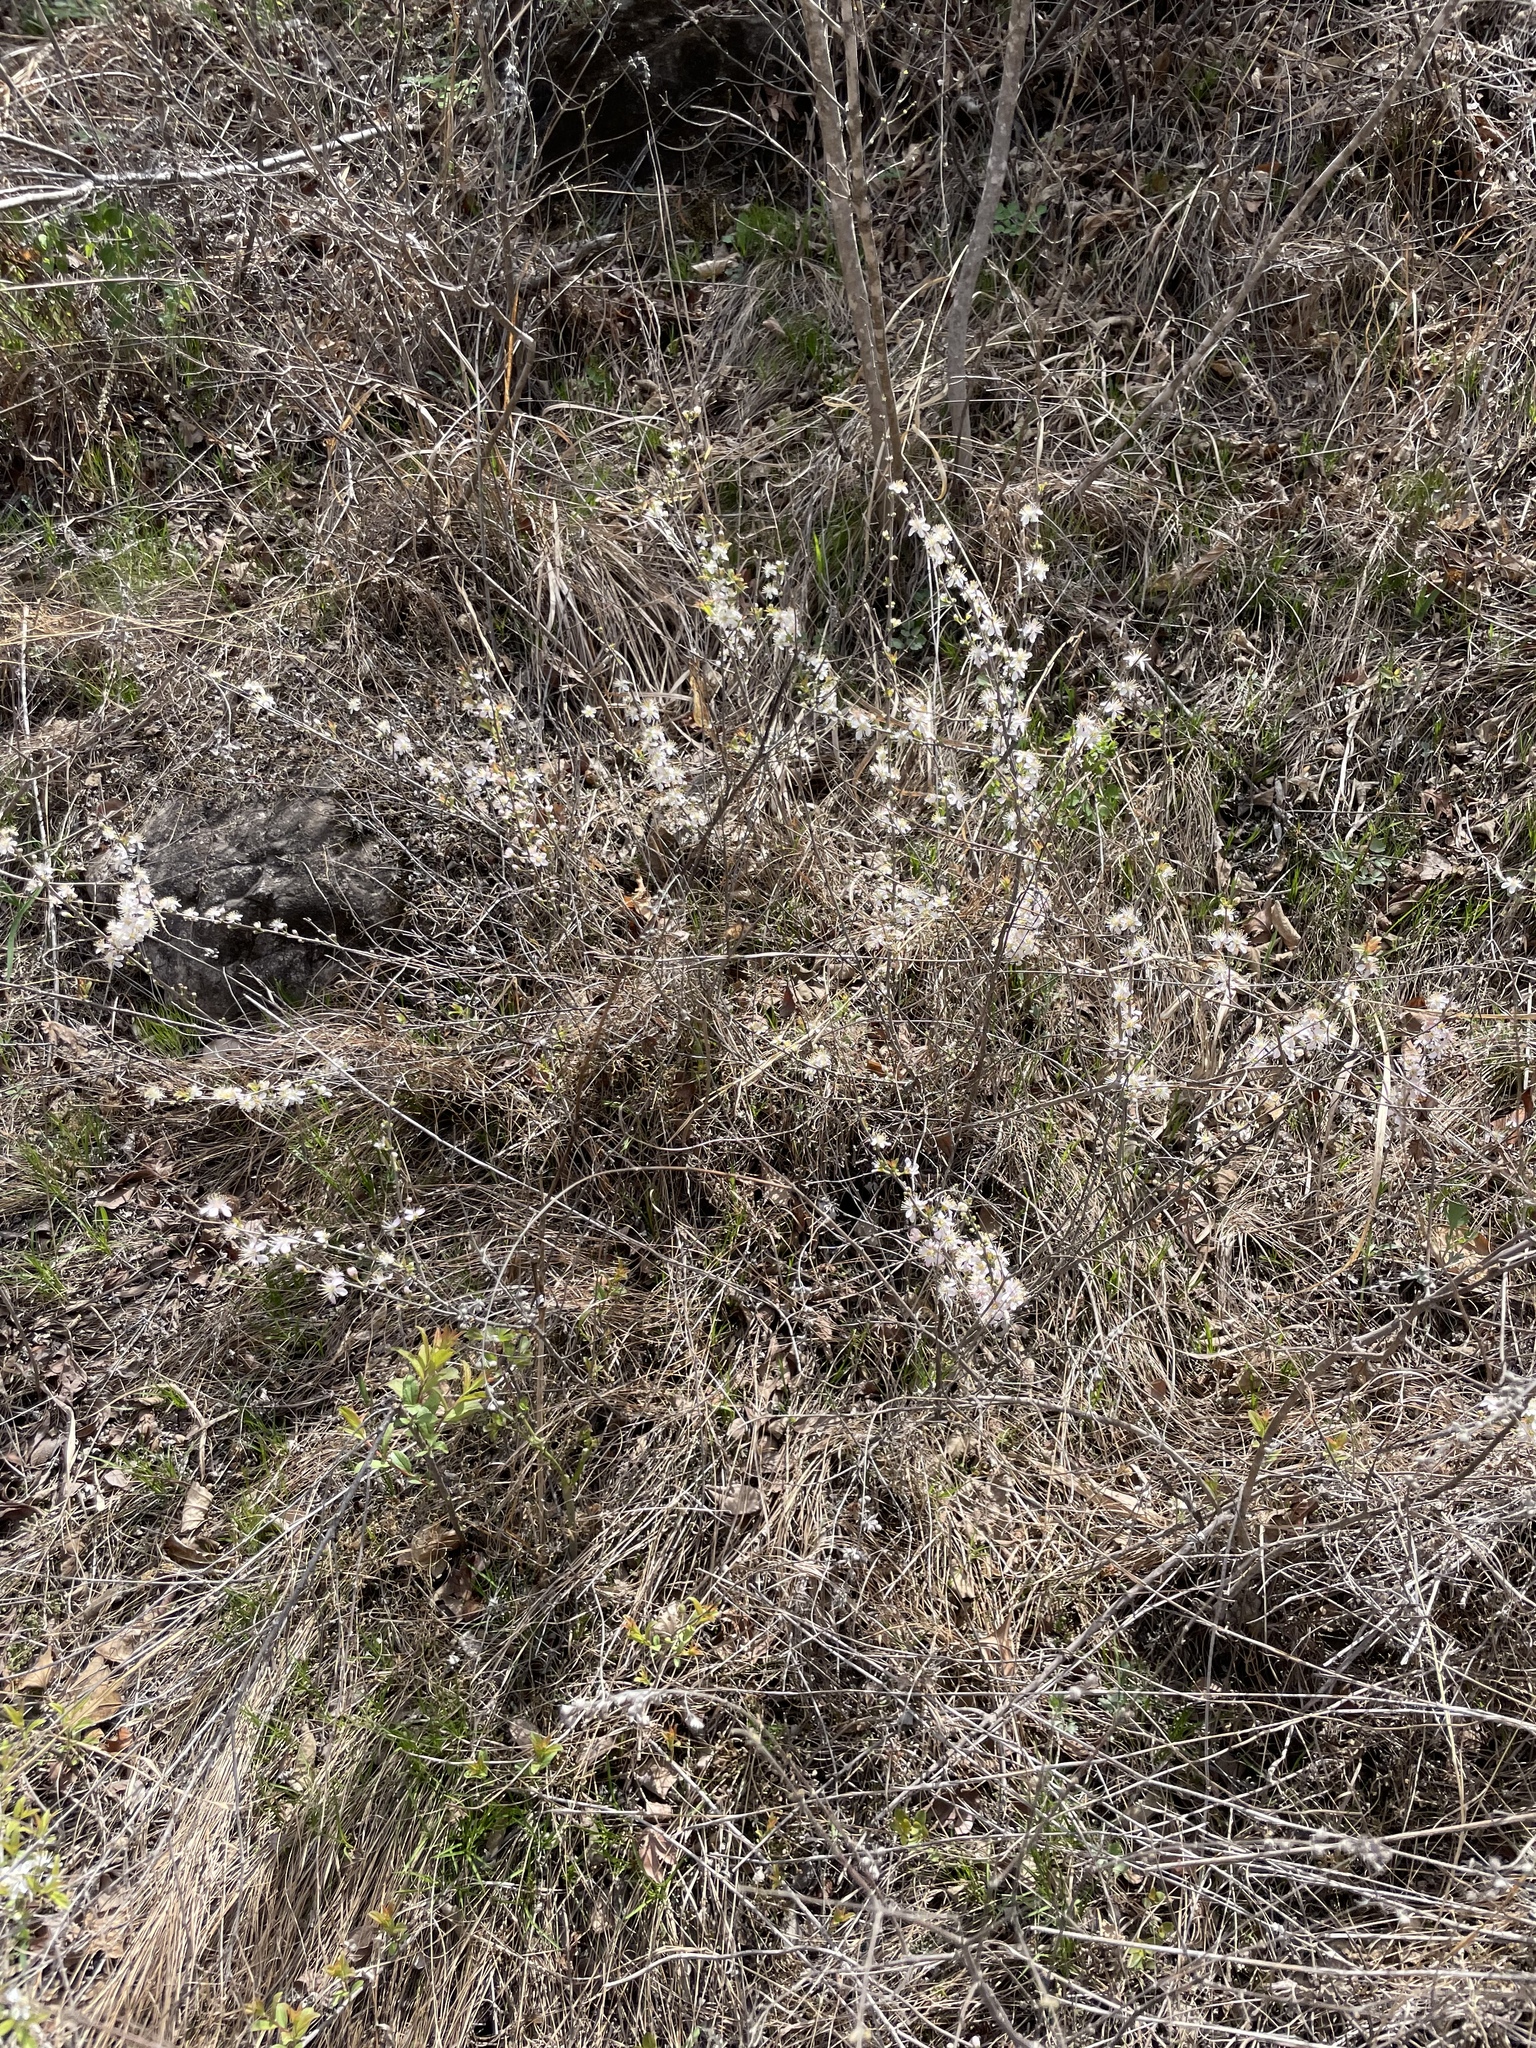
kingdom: Plantae
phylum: Tracheophyta
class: Magnoliopsida
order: Rosales
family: Rosaceae
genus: Prunus
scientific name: Prunus humilis
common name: Humble bush cherry
